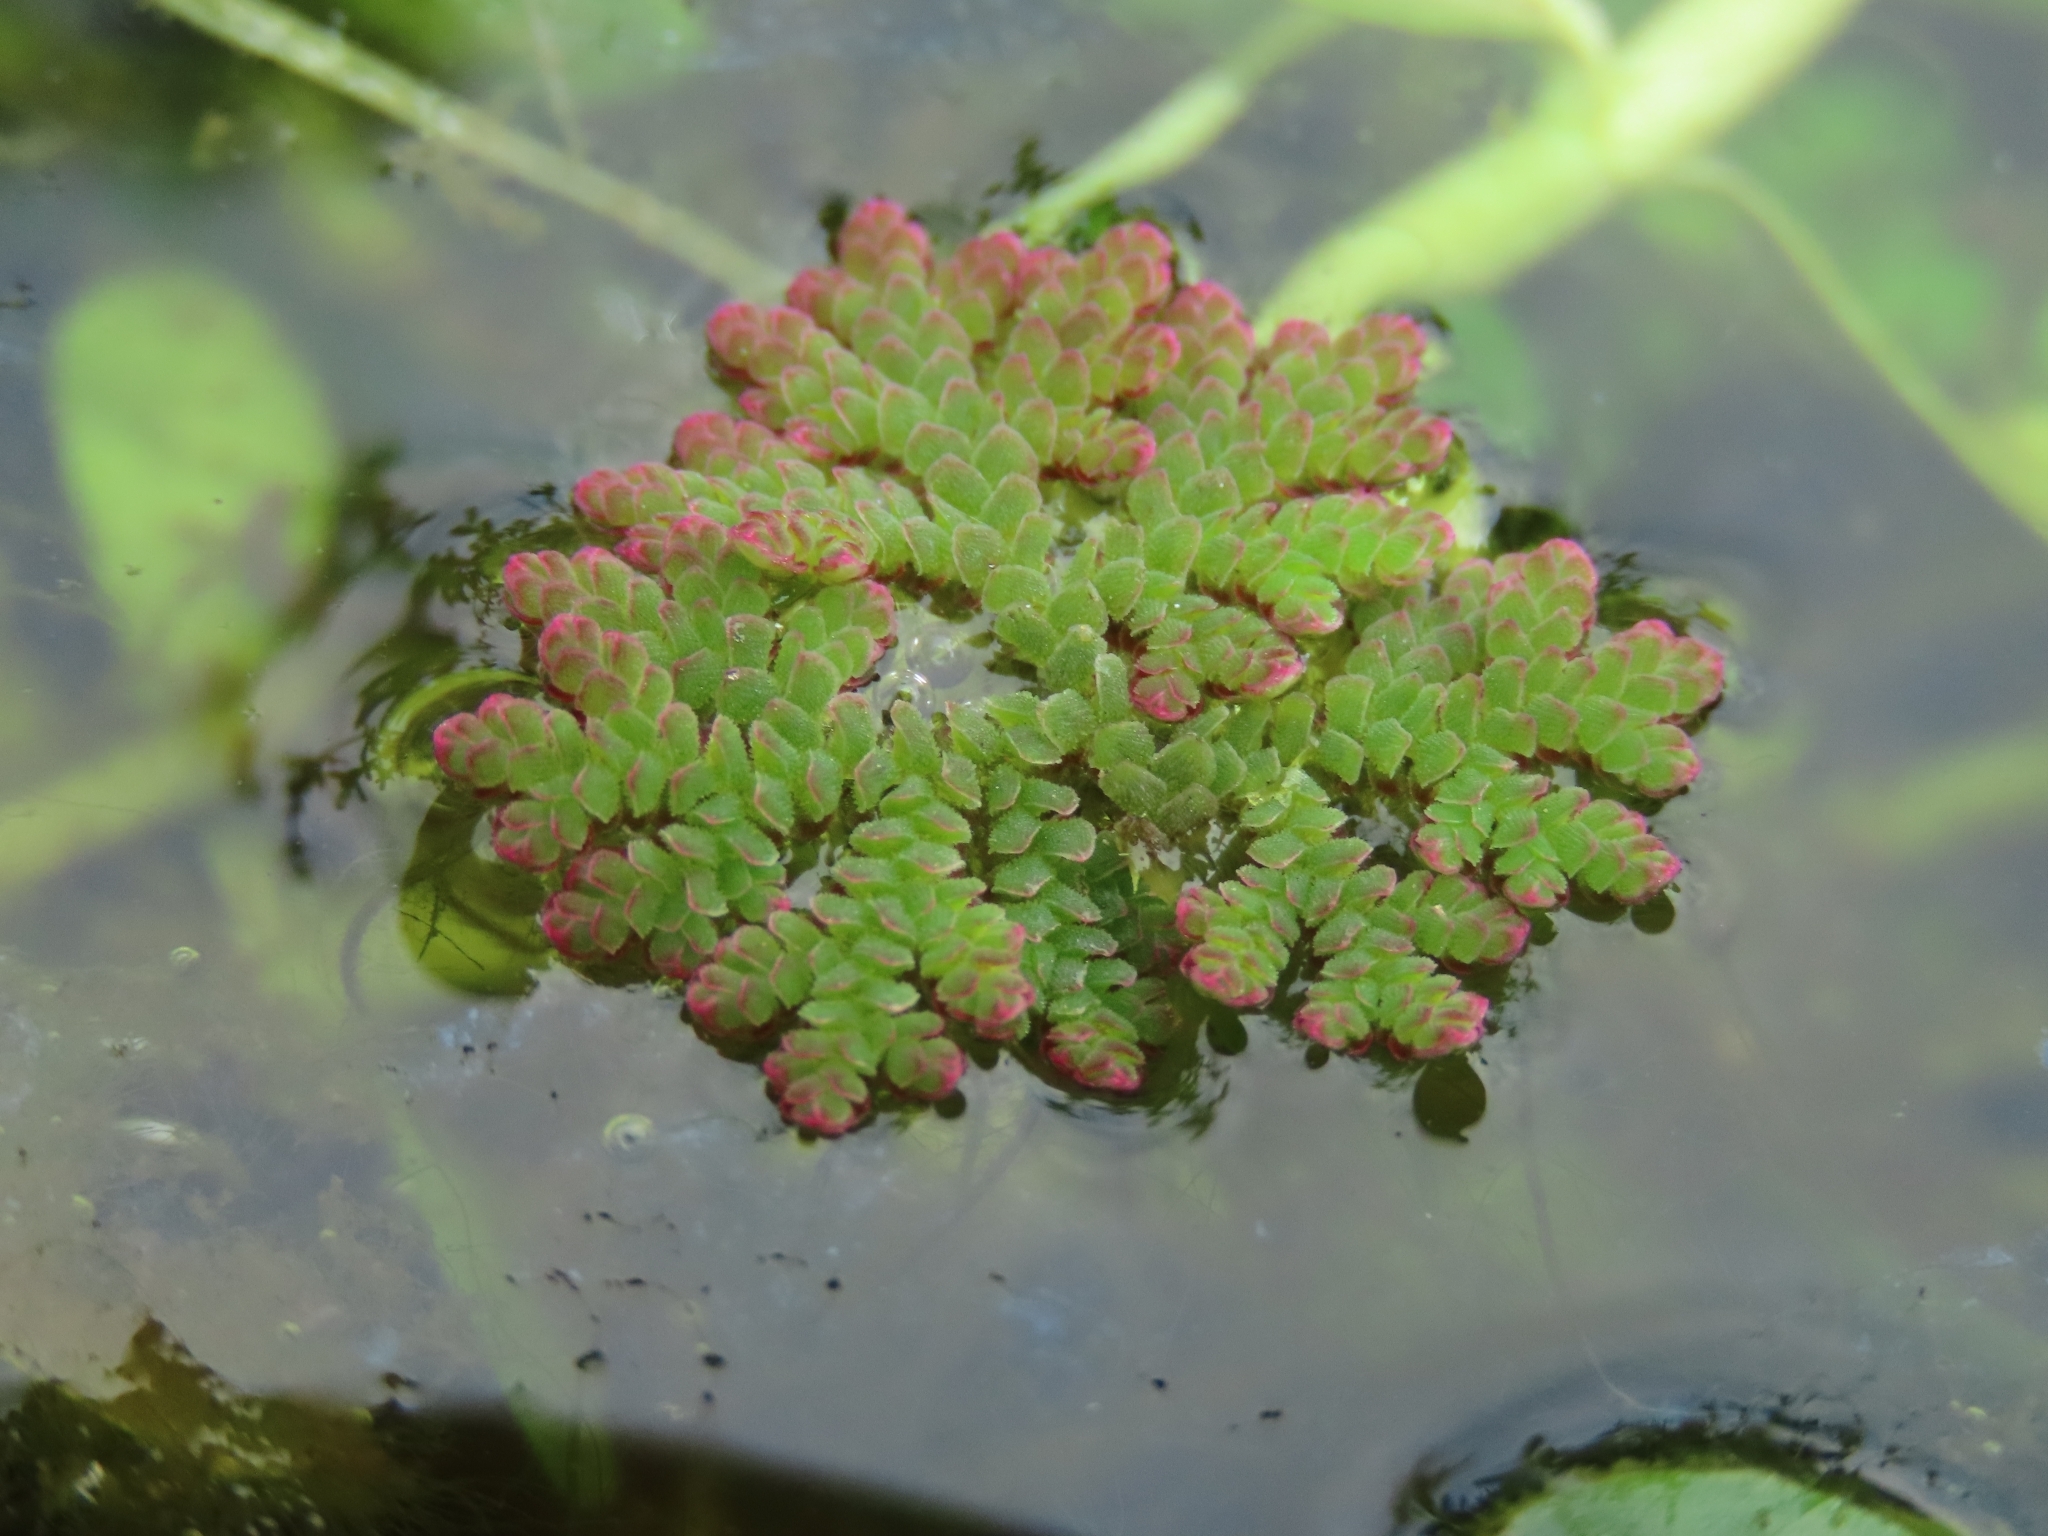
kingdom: Plantae
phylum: Tracheophyta
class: Polypodiopsida
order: Salviniales
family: Salviniaceae
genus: Azolla
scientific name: Azolla caroliniana
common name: Carolina mosquitofern
